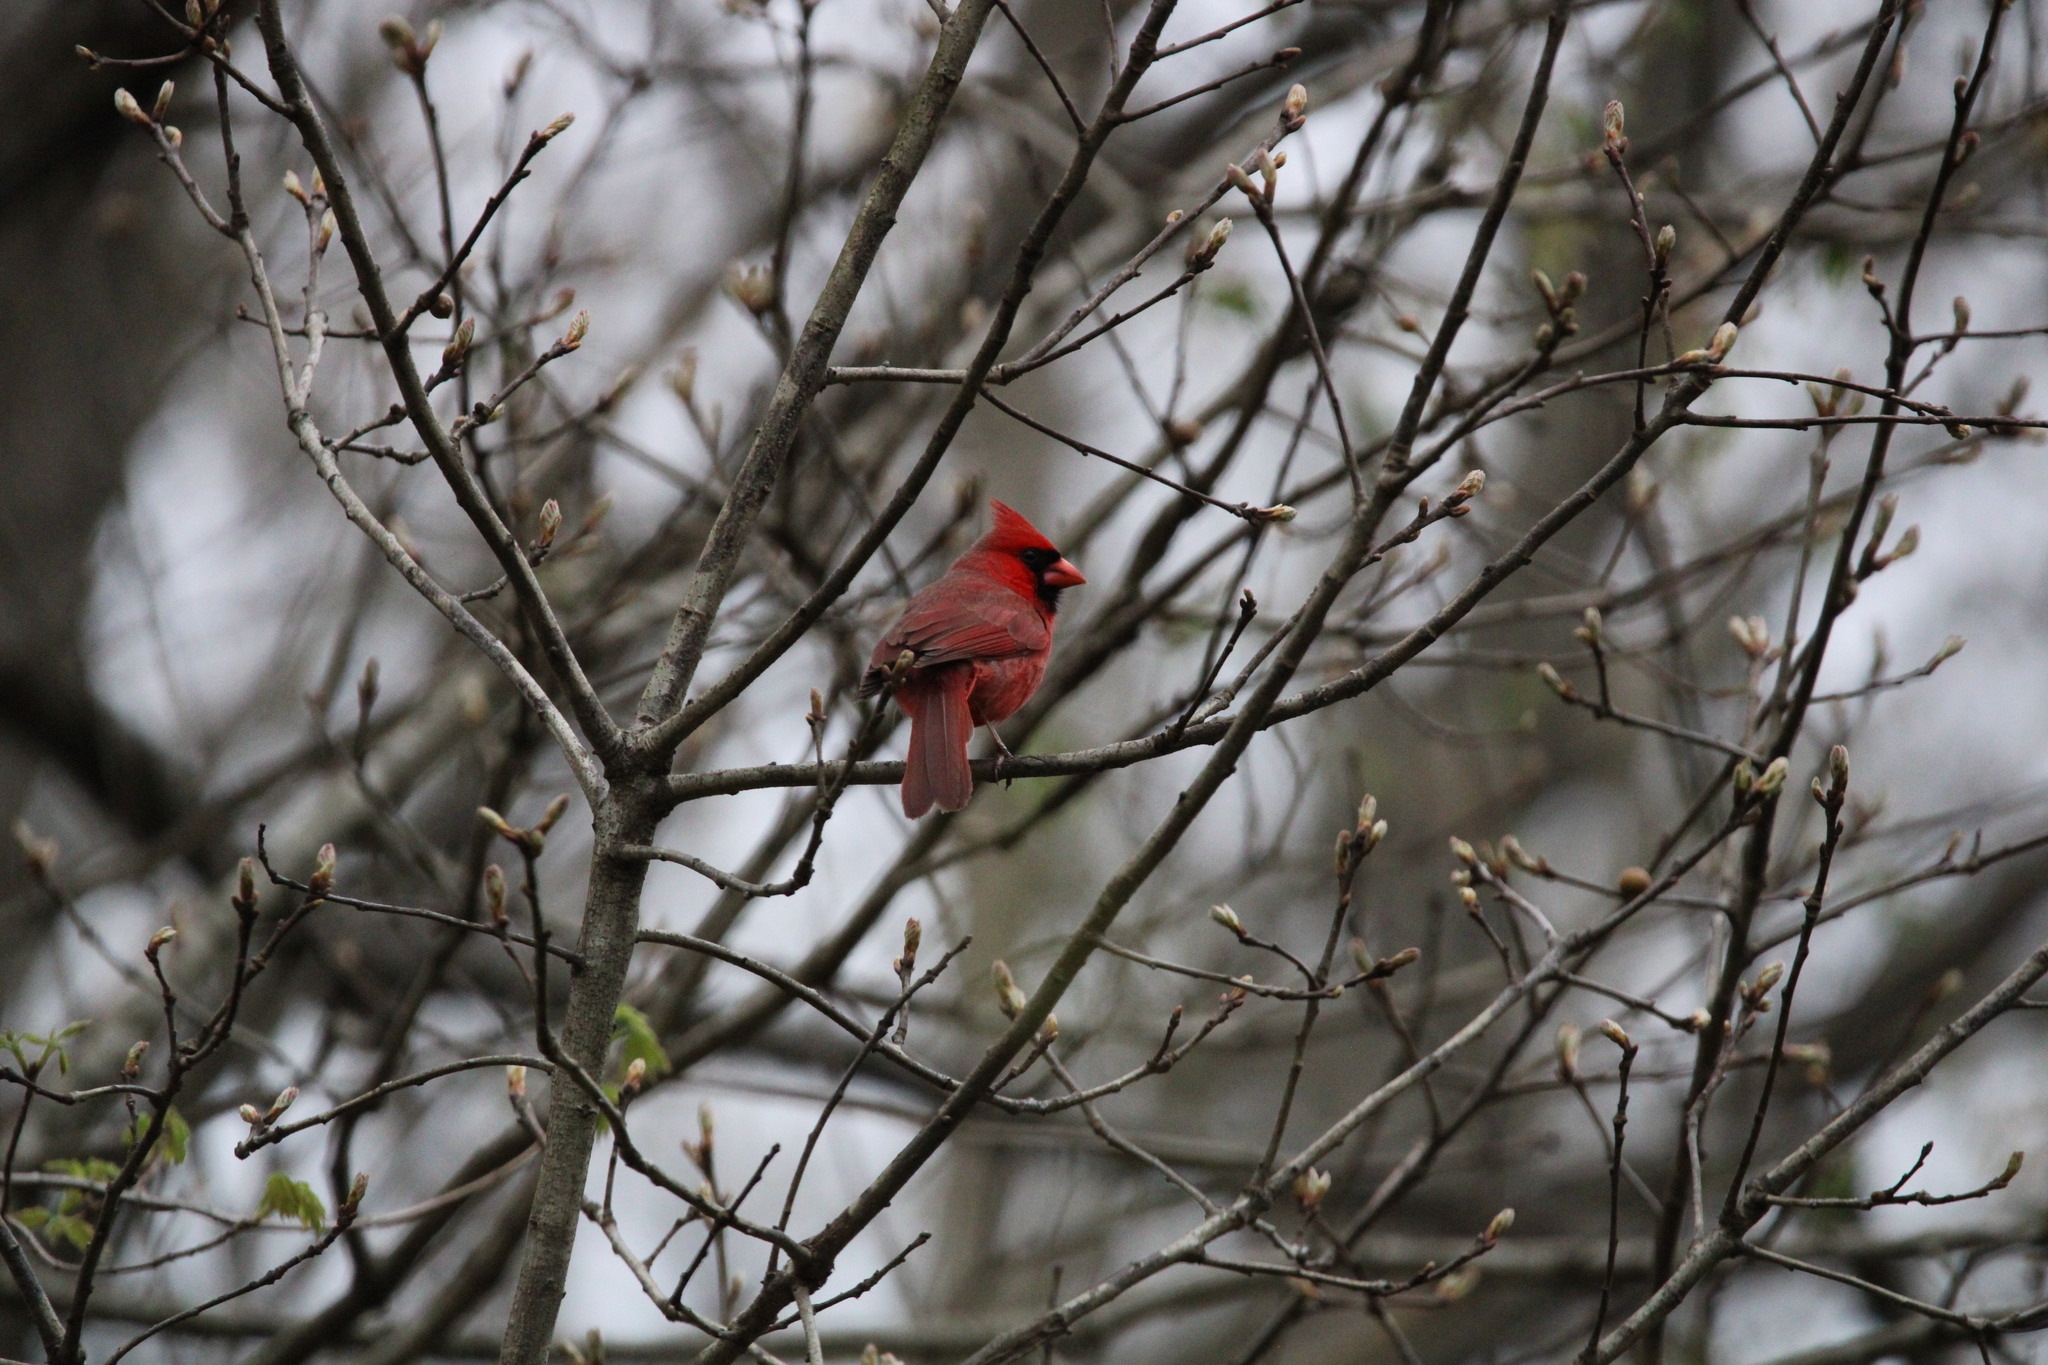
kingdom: Animalia
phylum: Chordata
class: Aves
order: Passeriformes
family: Cardinalidae
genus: Cardinalis
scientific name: Cardinalis cardinalis
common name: Northern cardinal
